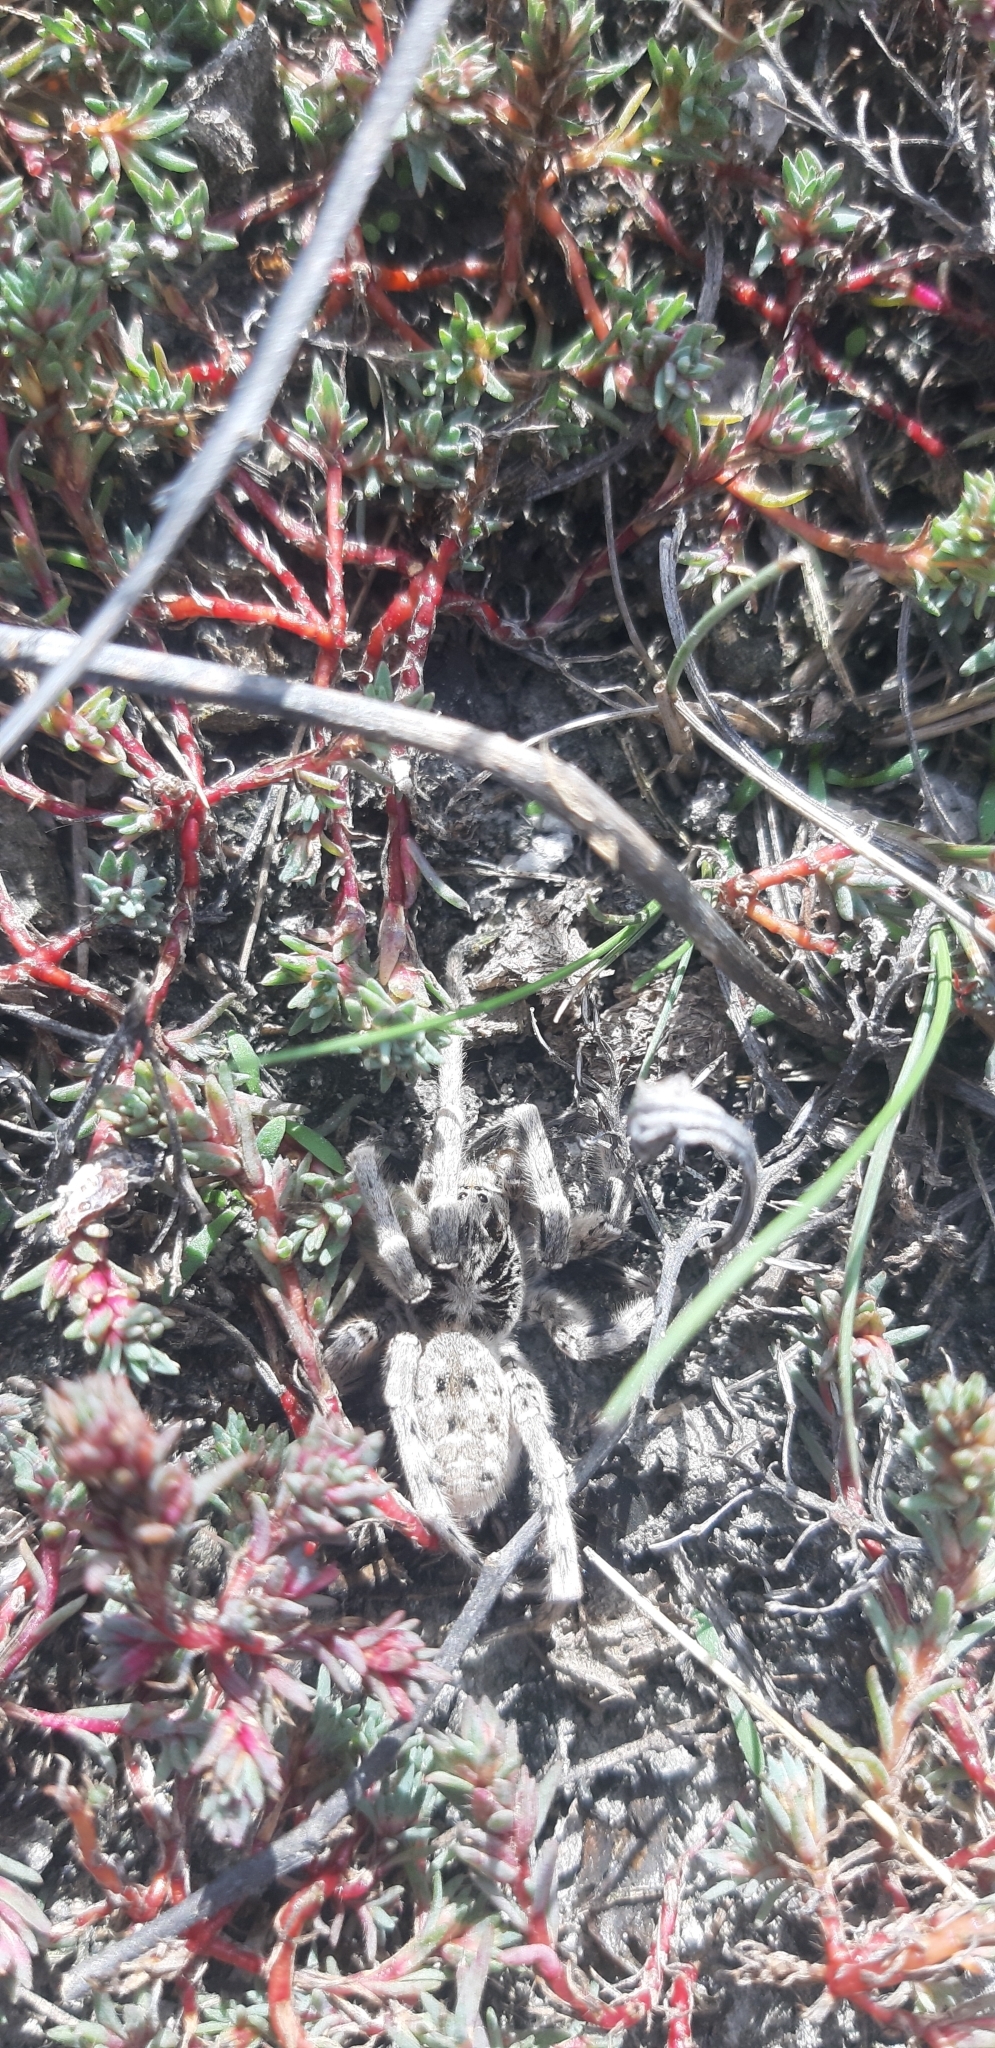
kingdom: Animalia
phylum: Arthropoda
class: Arachnida
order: Araneae
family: Lycosidae
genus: Lycosa
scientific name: Lycosa singoriensis
